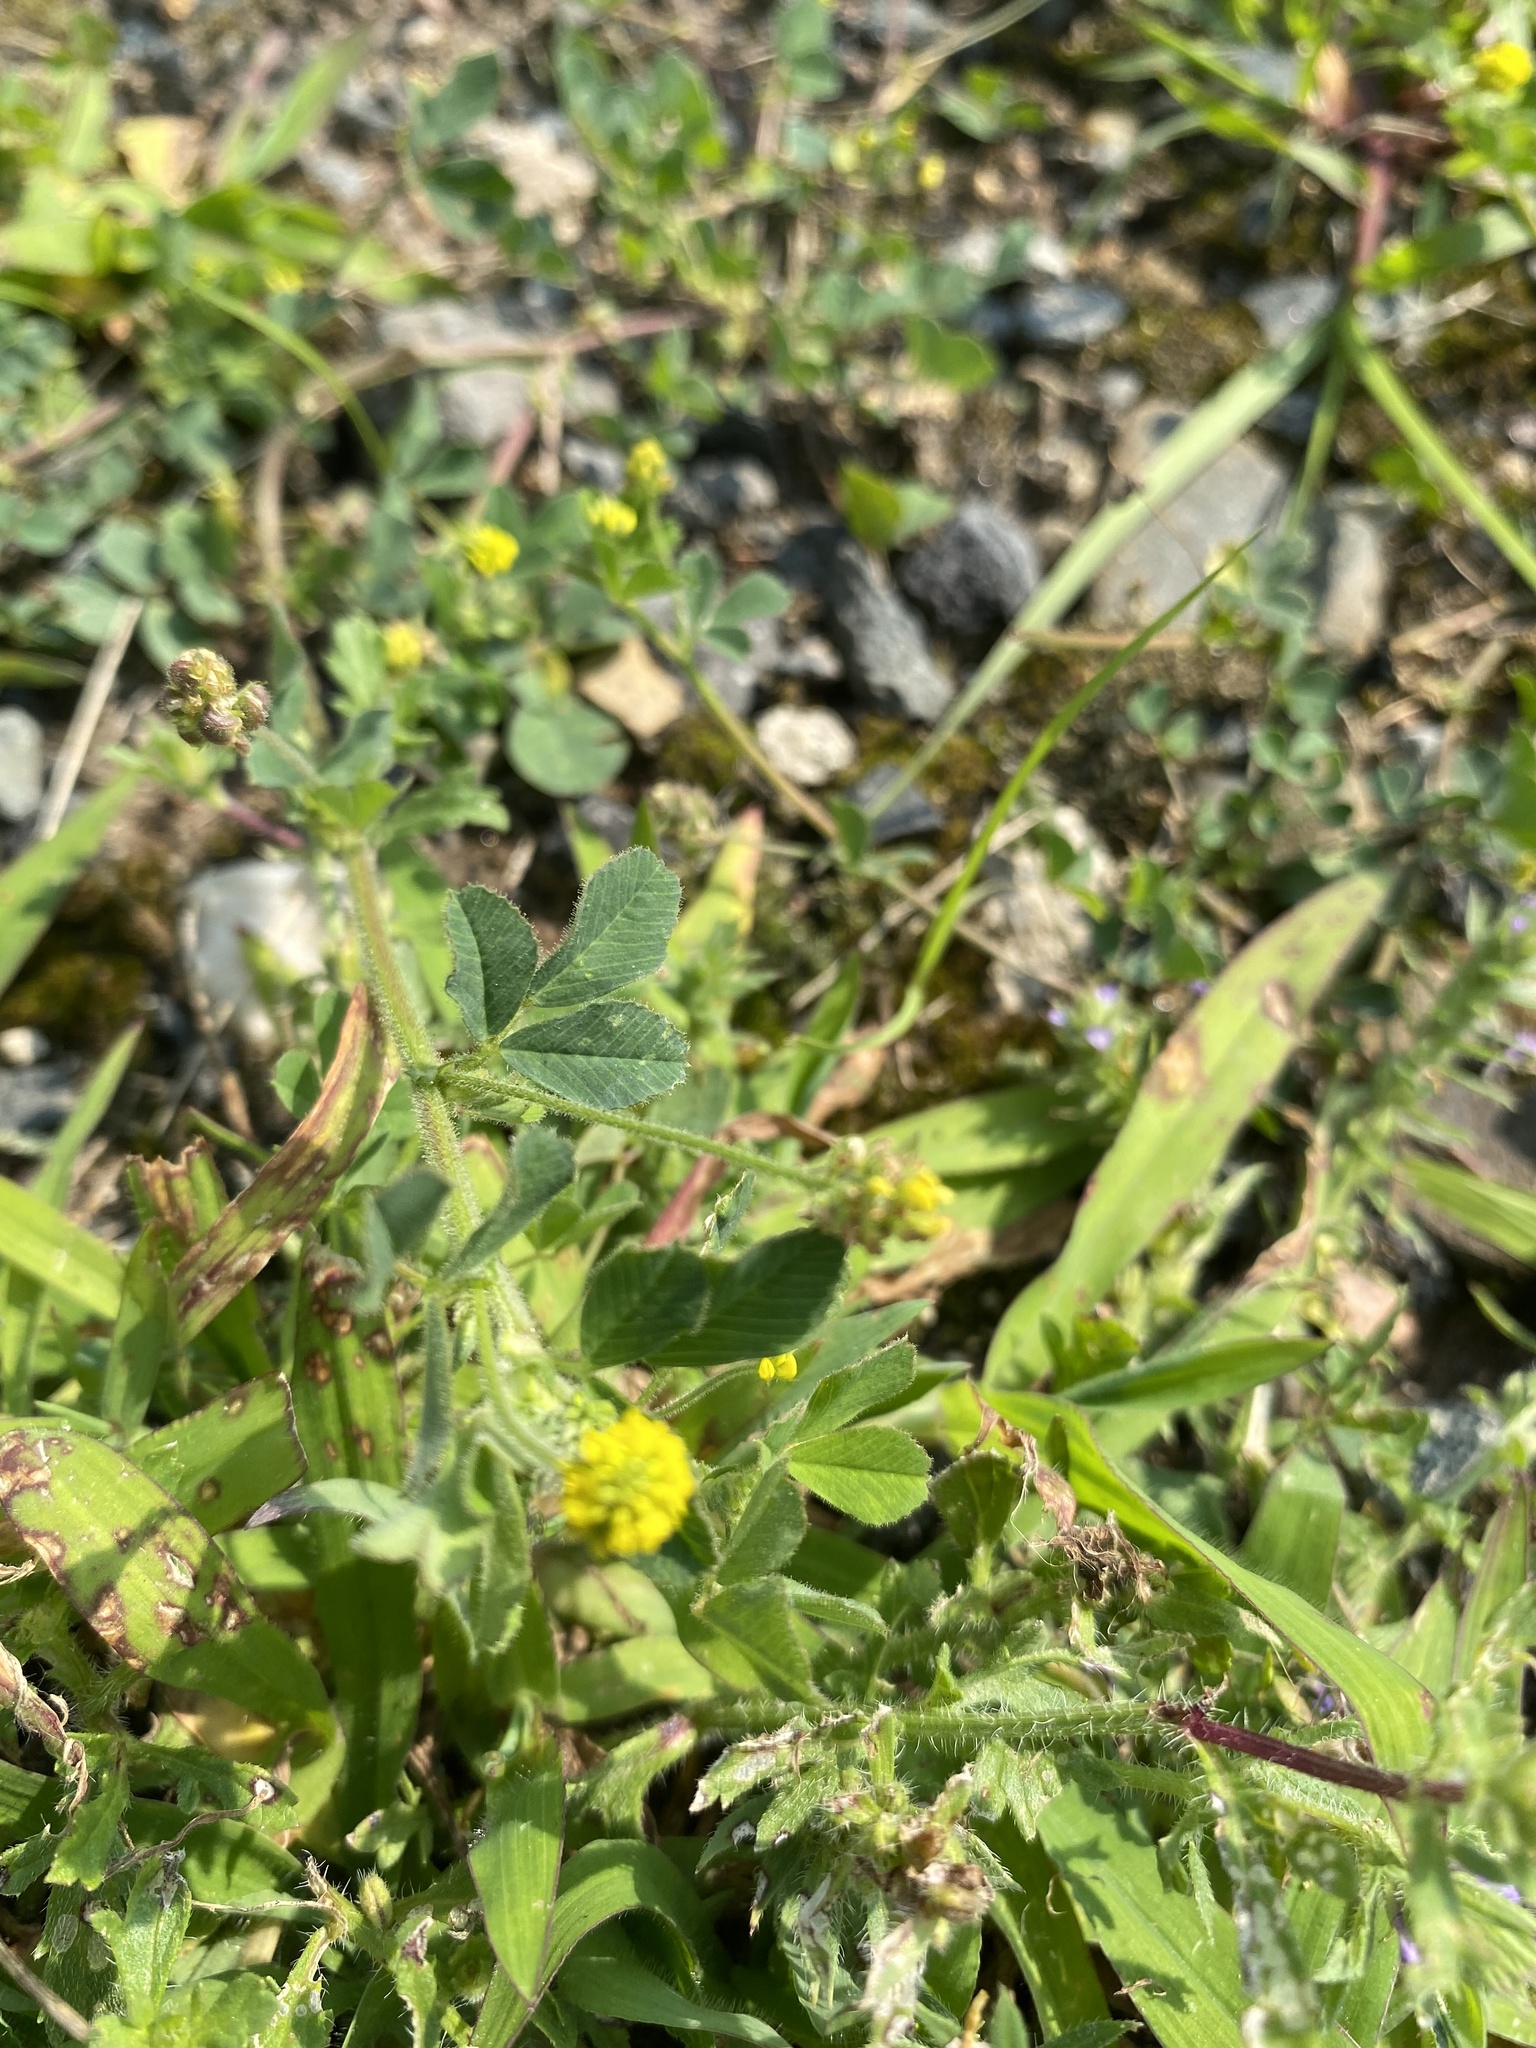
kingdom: Plantae
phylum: Tracheophyta
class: Magnoliopsida
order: Fabales
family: Fabaceae
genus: Medicago
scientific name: Medicago lupulina
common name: Black medick
